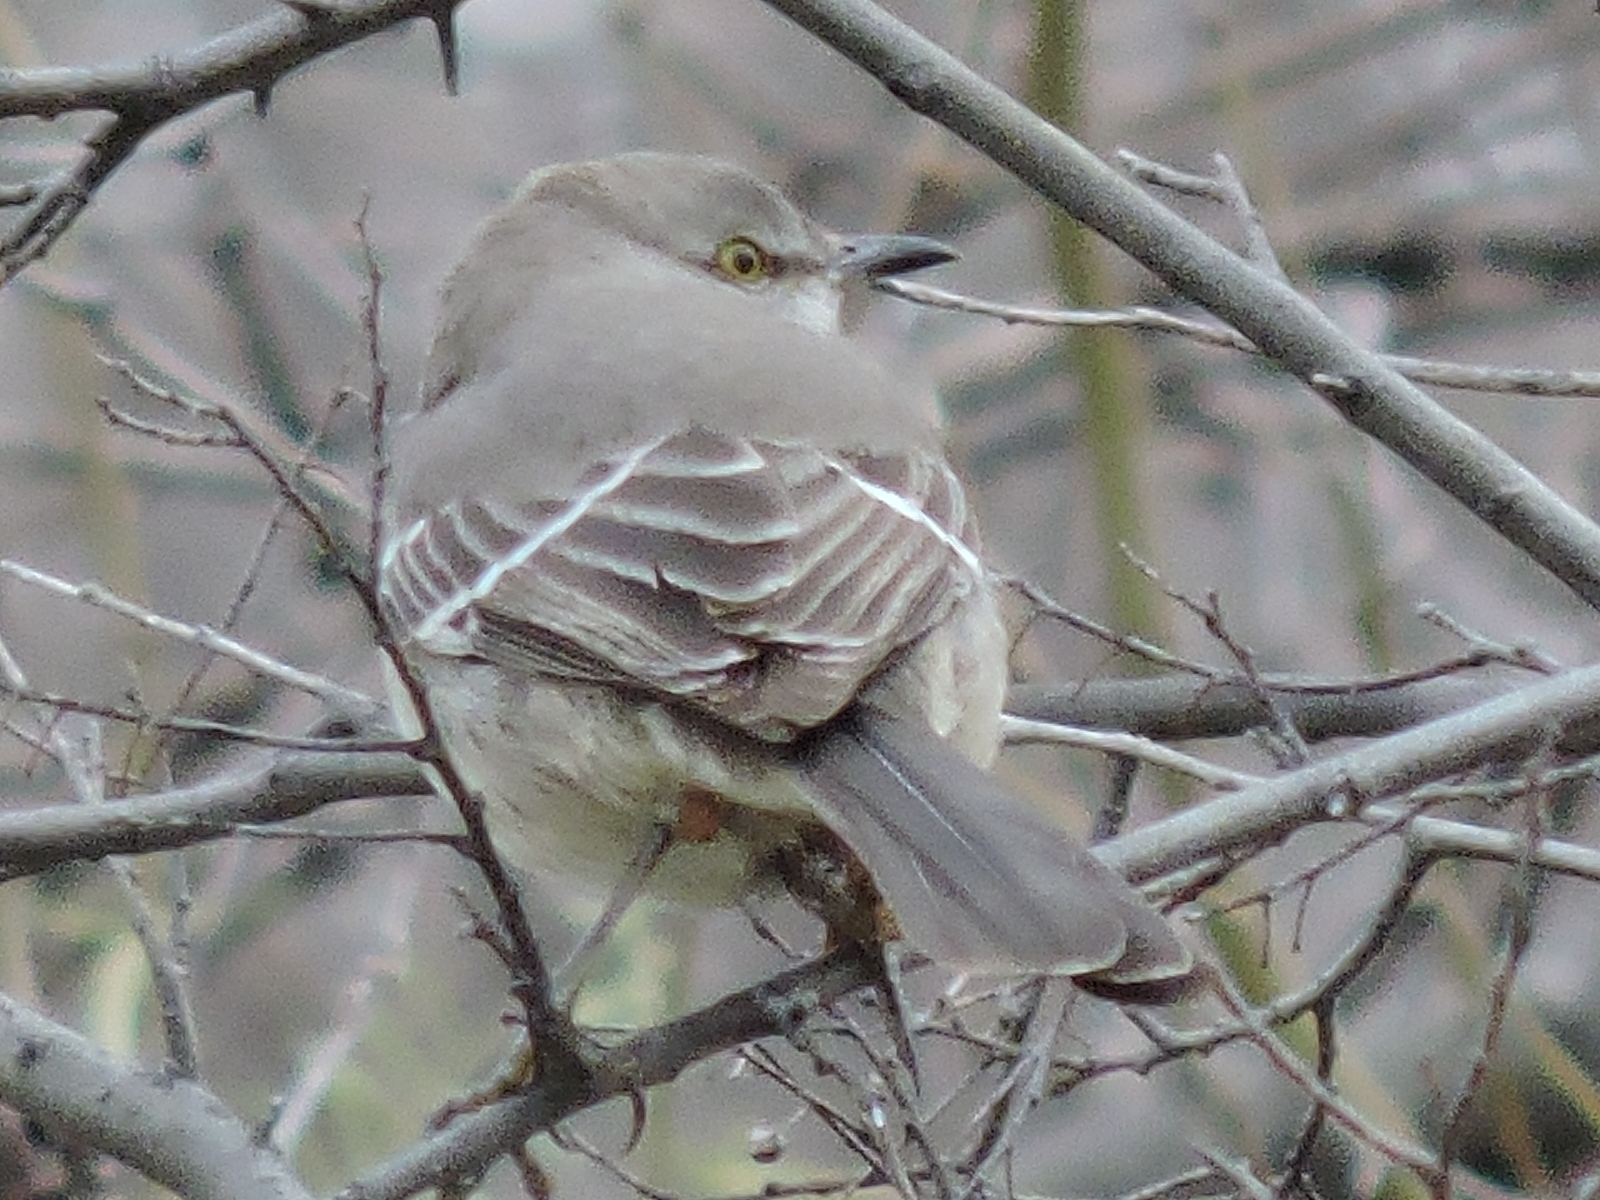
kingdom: Animalia
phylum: Chordata
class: Aves
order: Passeriformes
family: Mimidae
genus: Mimus
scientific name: Mimus polyglottos
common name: Northern mockingbird
